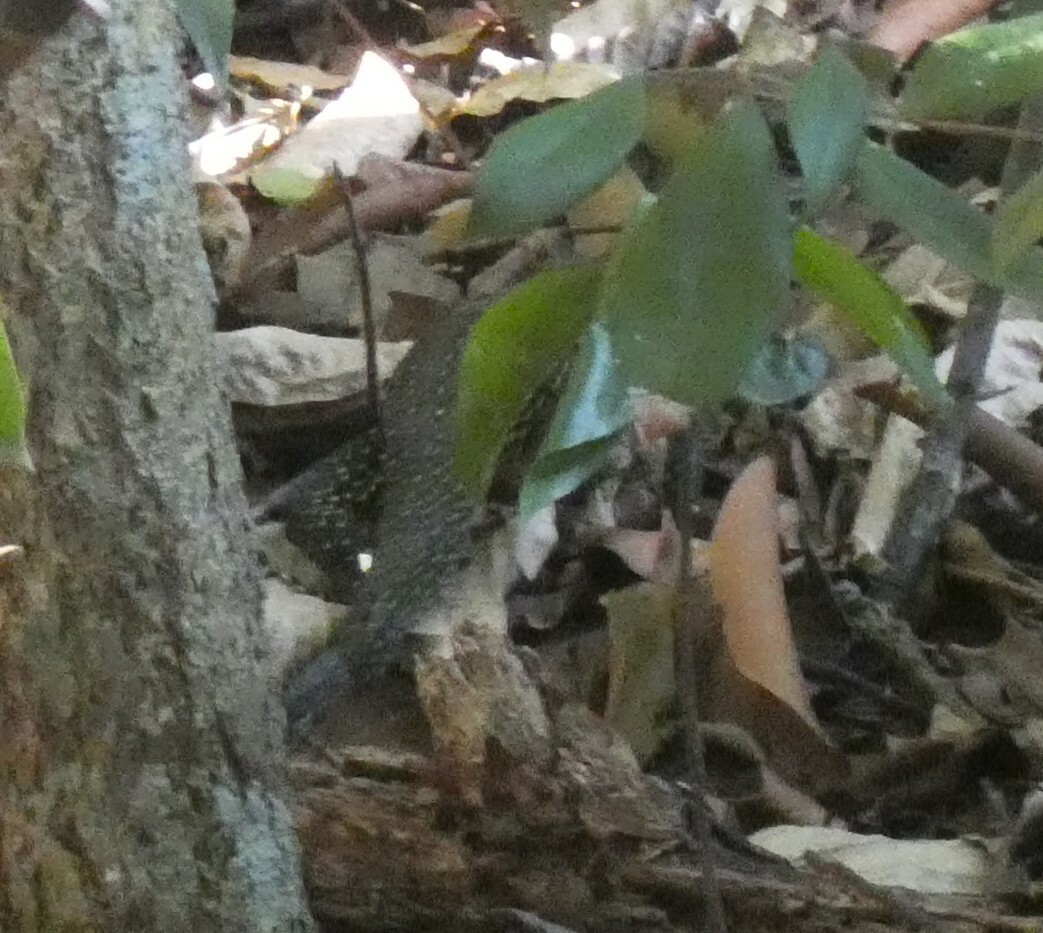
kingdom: Animalia
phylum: Chordata
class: Squamata
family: Teiidae
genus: Salvator
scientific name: Salvator merianae
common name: Argentine black and white tegu
